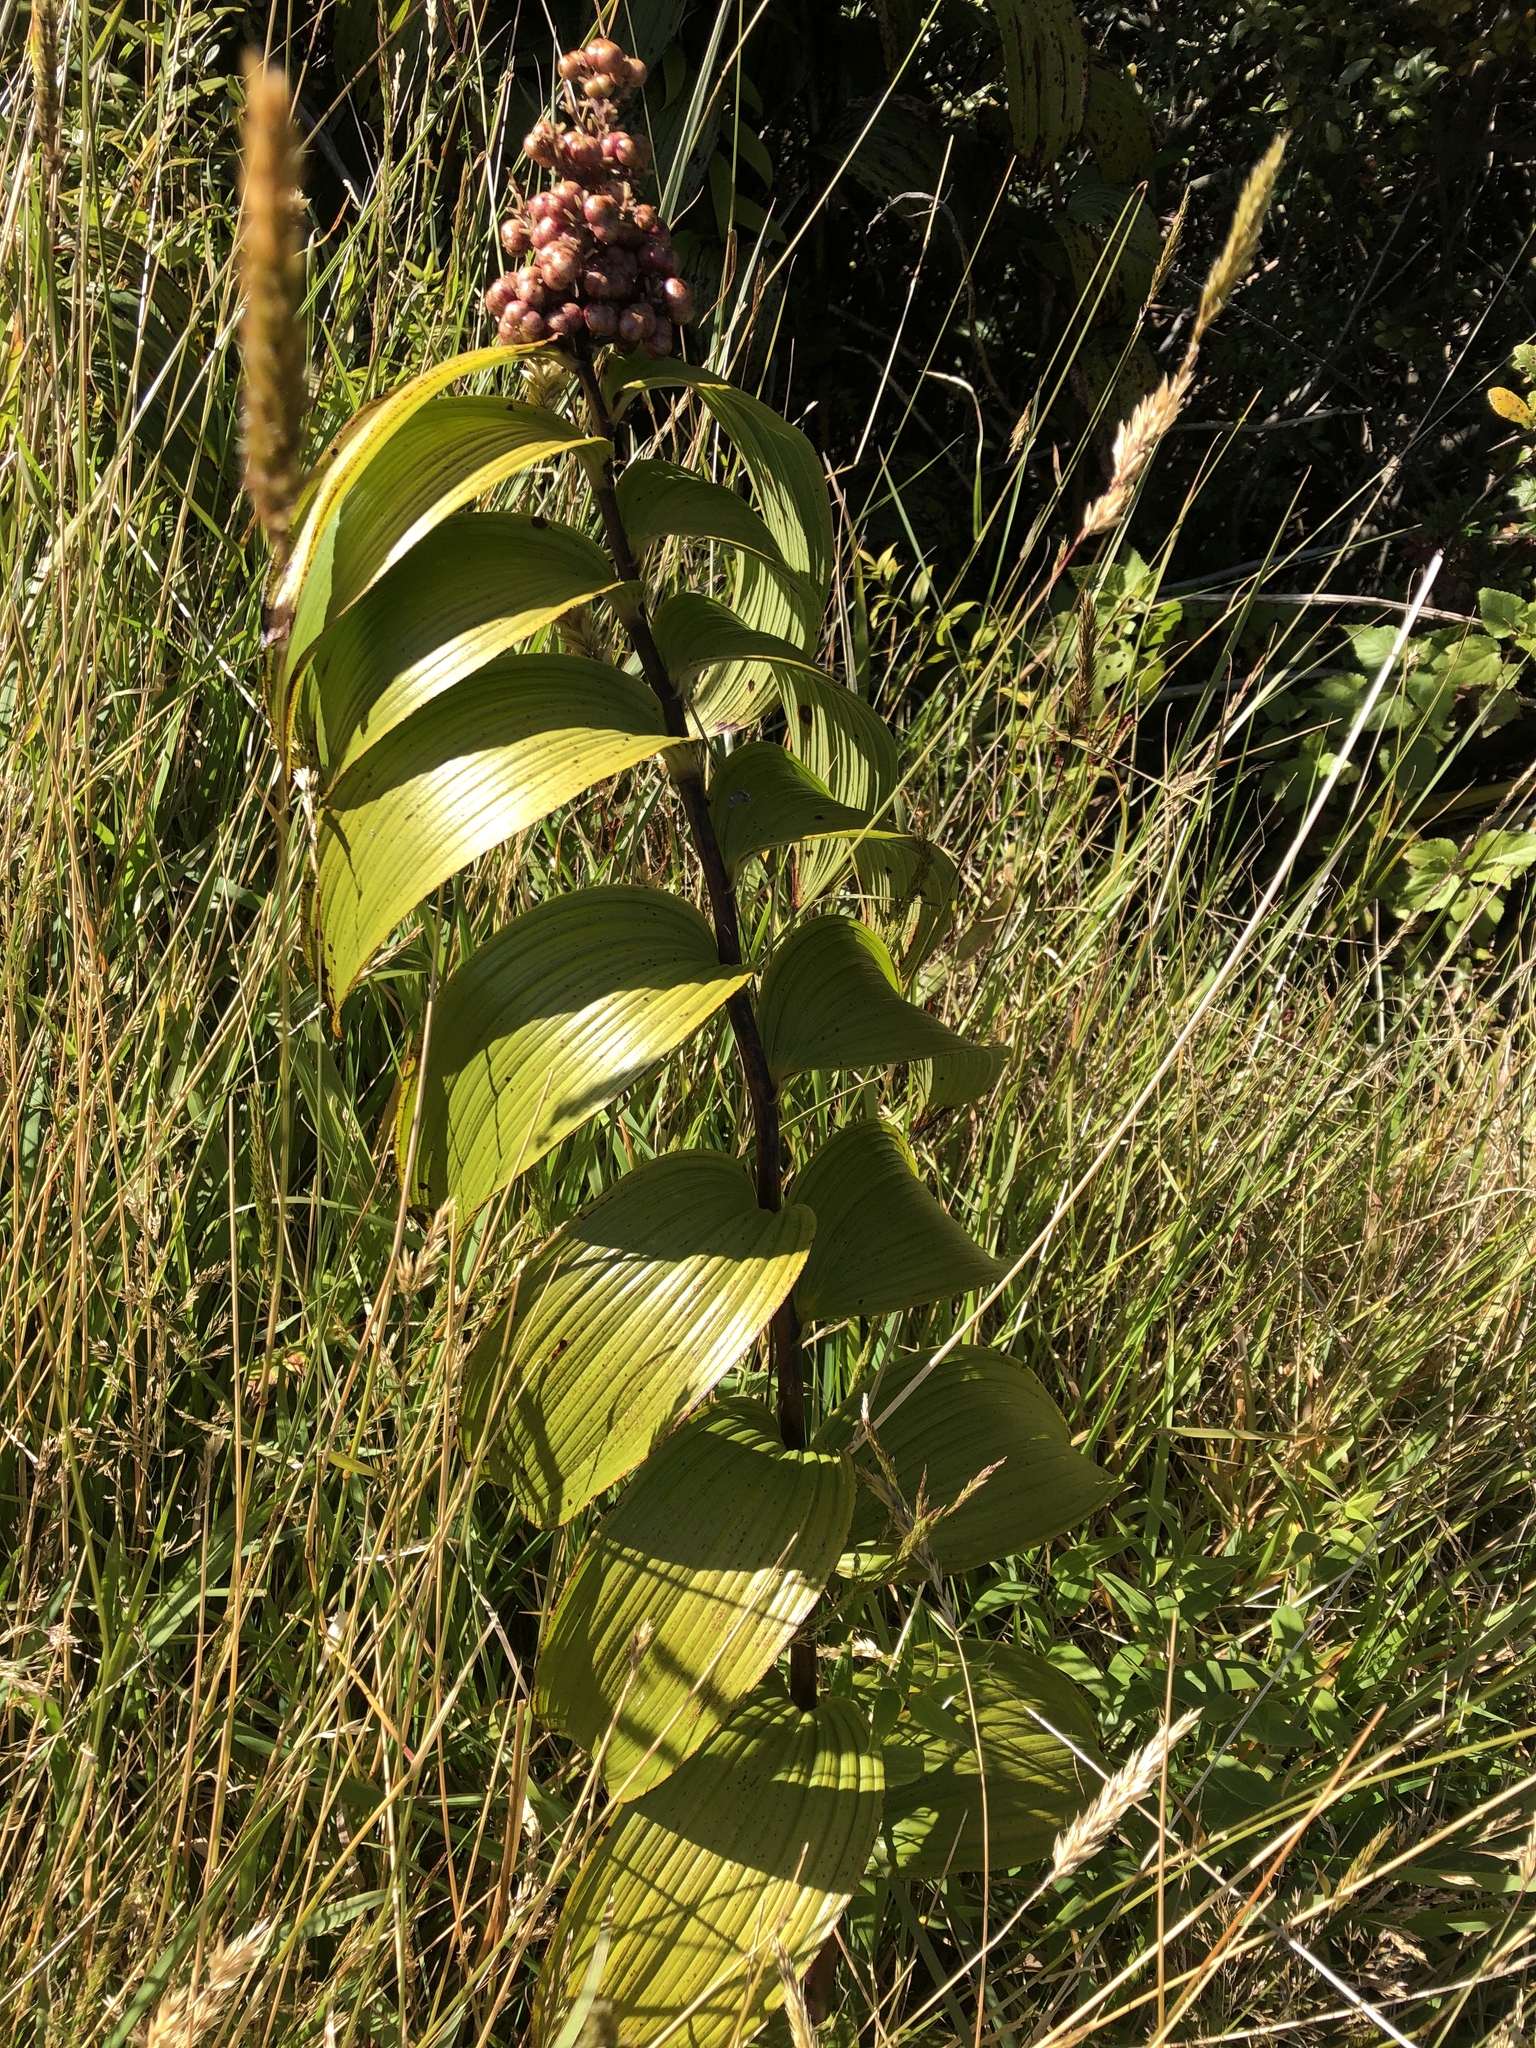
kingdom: Plantae
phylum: Tracheophyta
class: Liliopsida
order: Asparagales
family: Asparagaceae
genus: Maianthemum
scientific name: Maianthemum gigas
